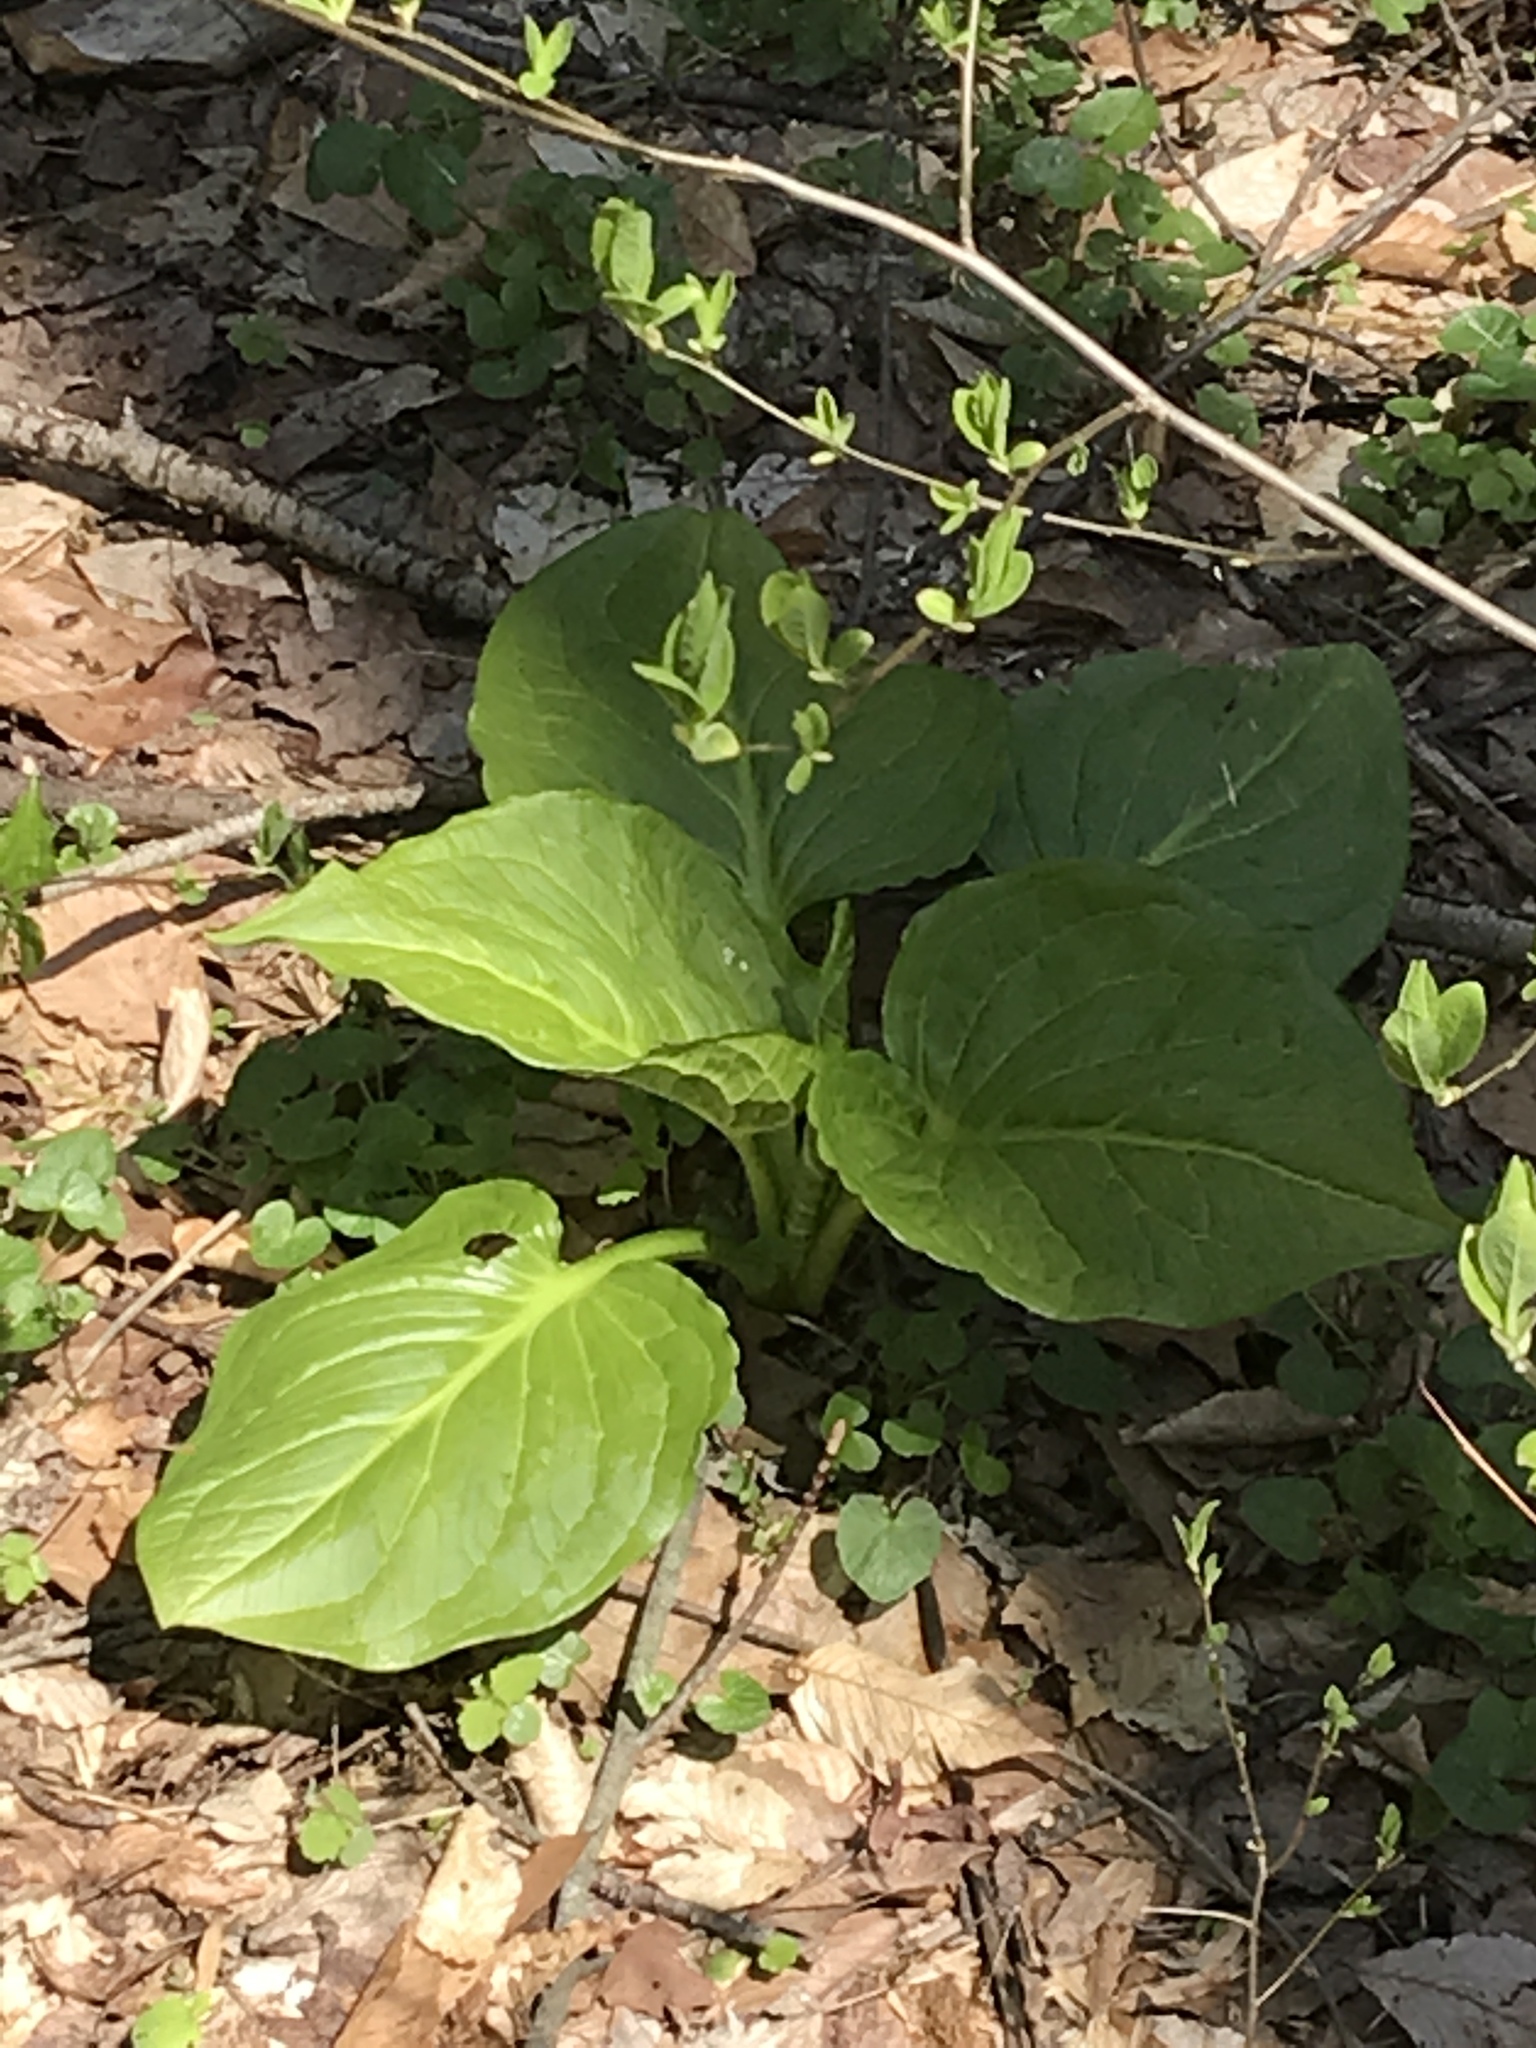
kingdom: Plantae
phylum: Tracheophyta
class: Liliopsida
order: Alismatales
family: Araceae
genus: Symplocarpus
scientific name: Symplocarpus foetidus
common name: Eastern skunk cabbage
